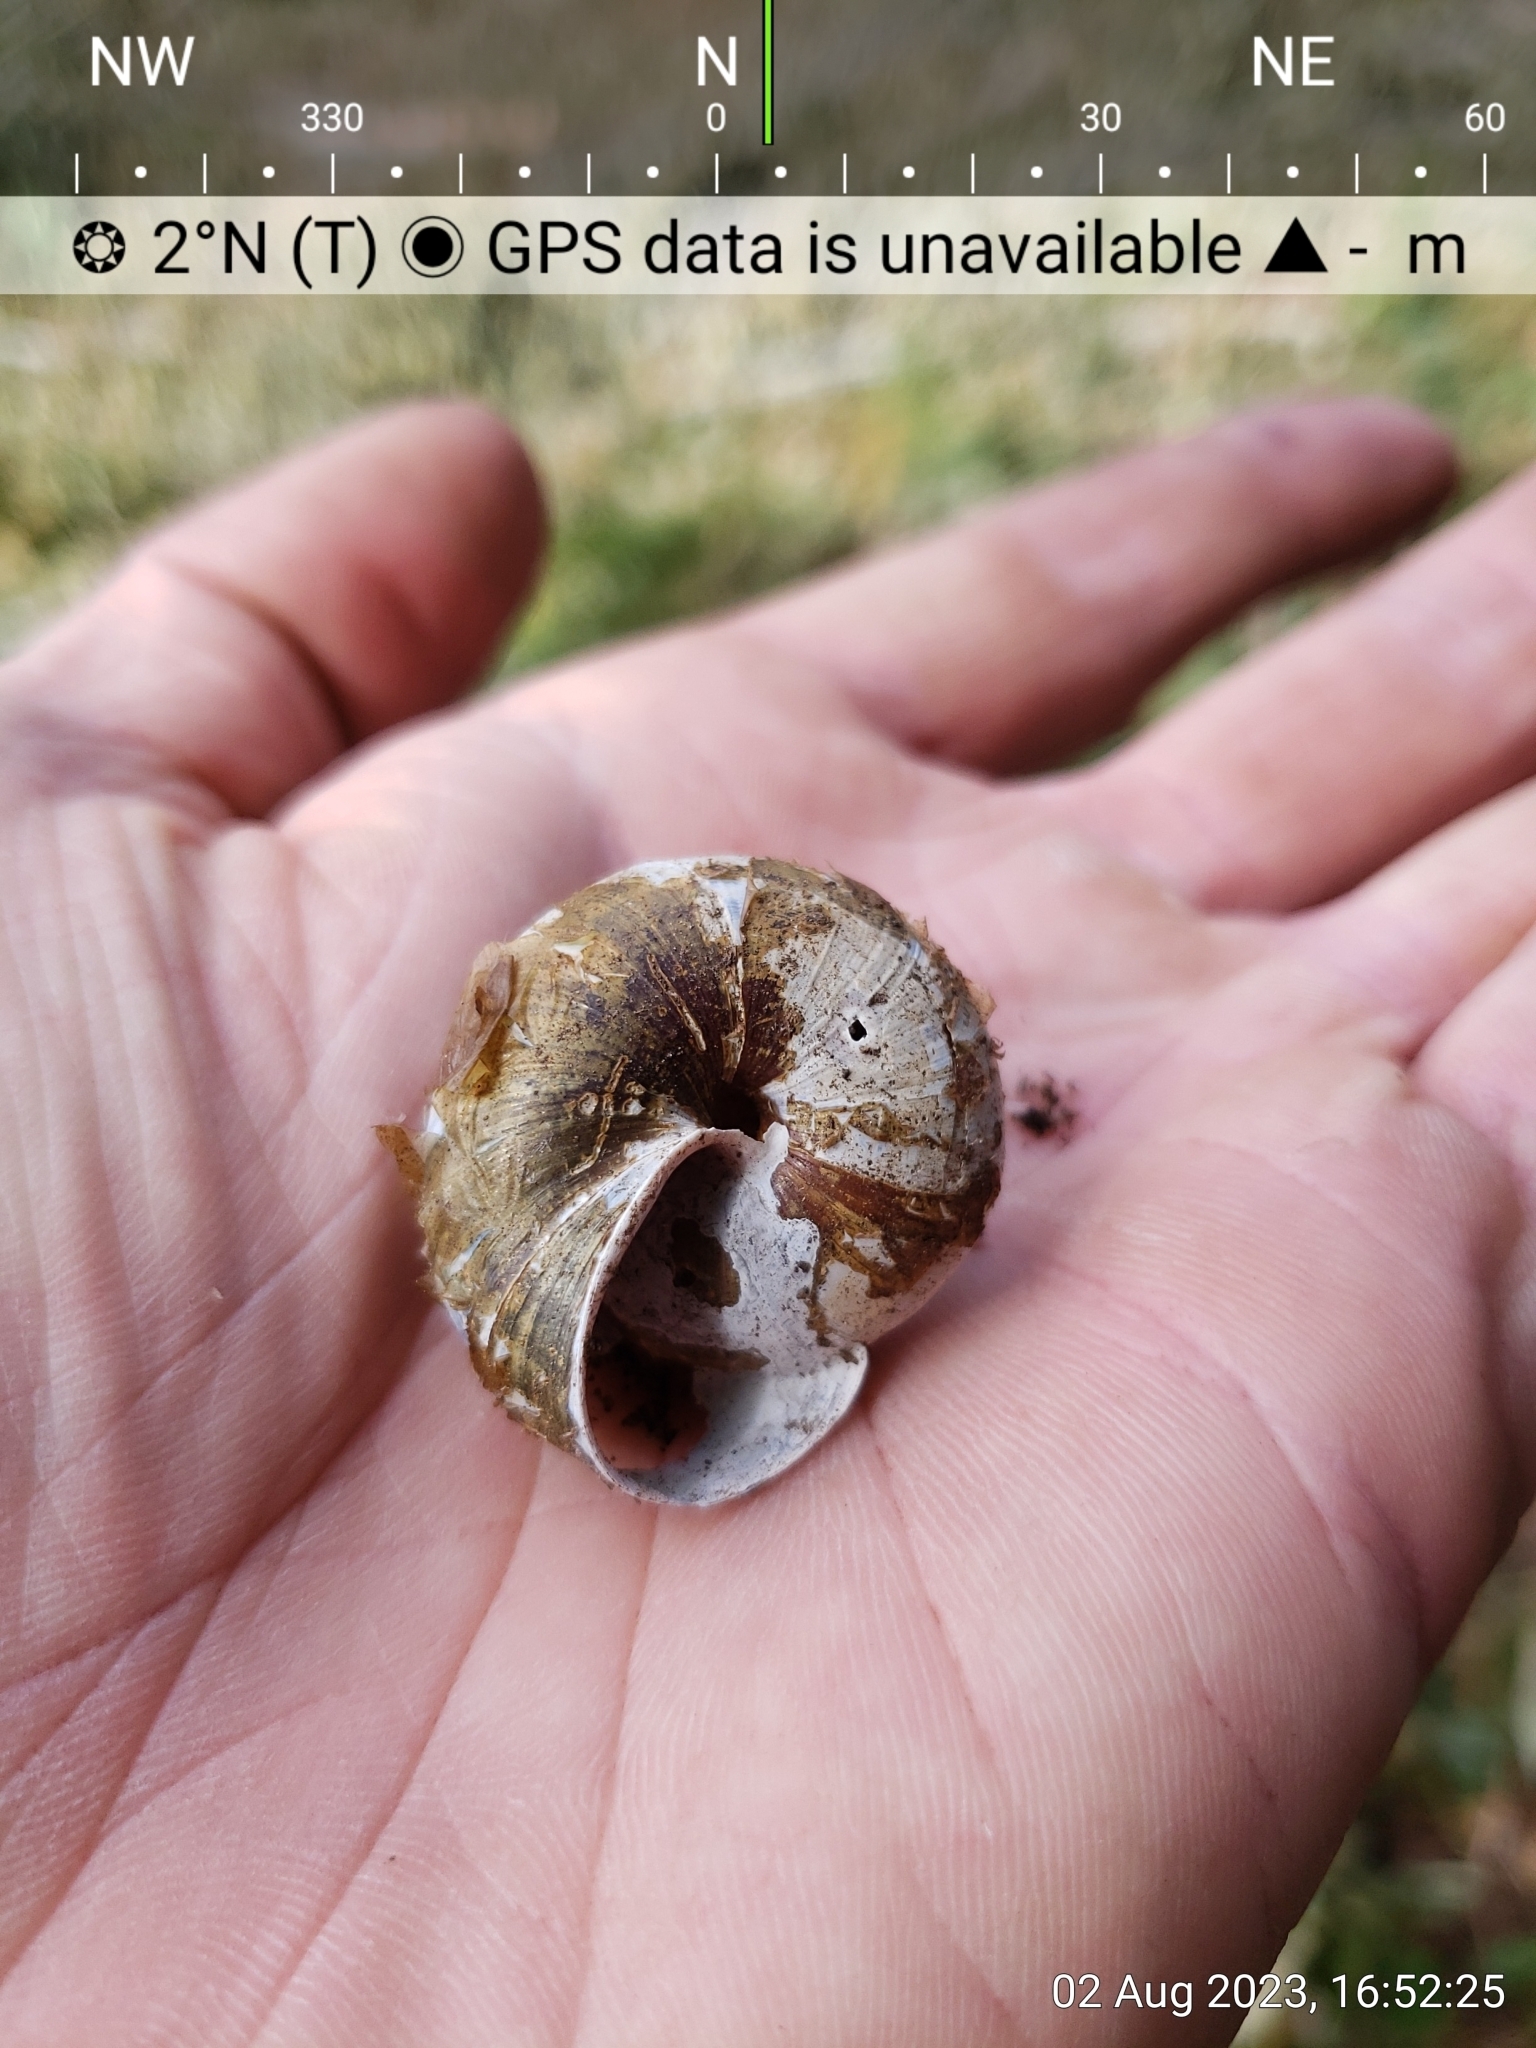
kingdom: Animalia
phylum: Mollusca
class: Gastropoda
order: Stylommatophora
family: Xanthonychidae
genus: Monadenia
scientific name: Monadenia fidelis
